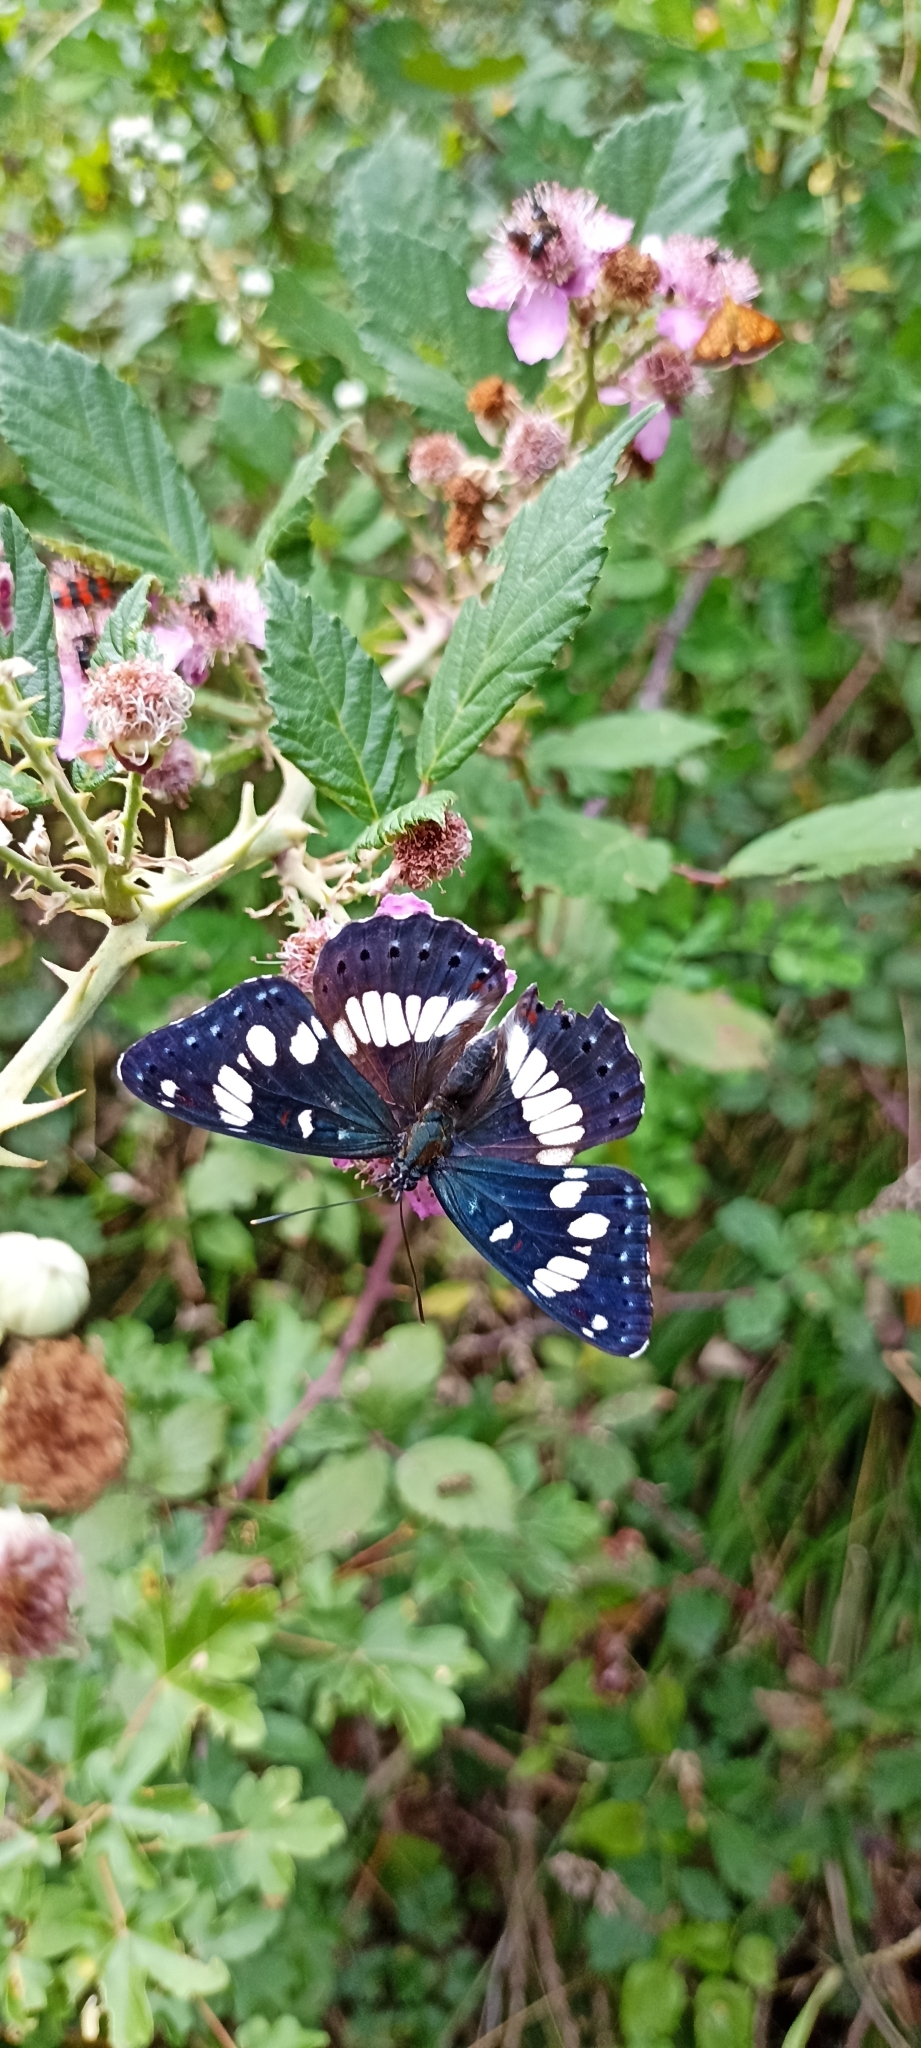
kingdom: Animalia
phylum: Arthropoda
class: Insecta
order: Lepidoptera
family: Nymphalidae
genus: Limenitis
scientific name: Limenitis reducta
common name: Southern white admiral
